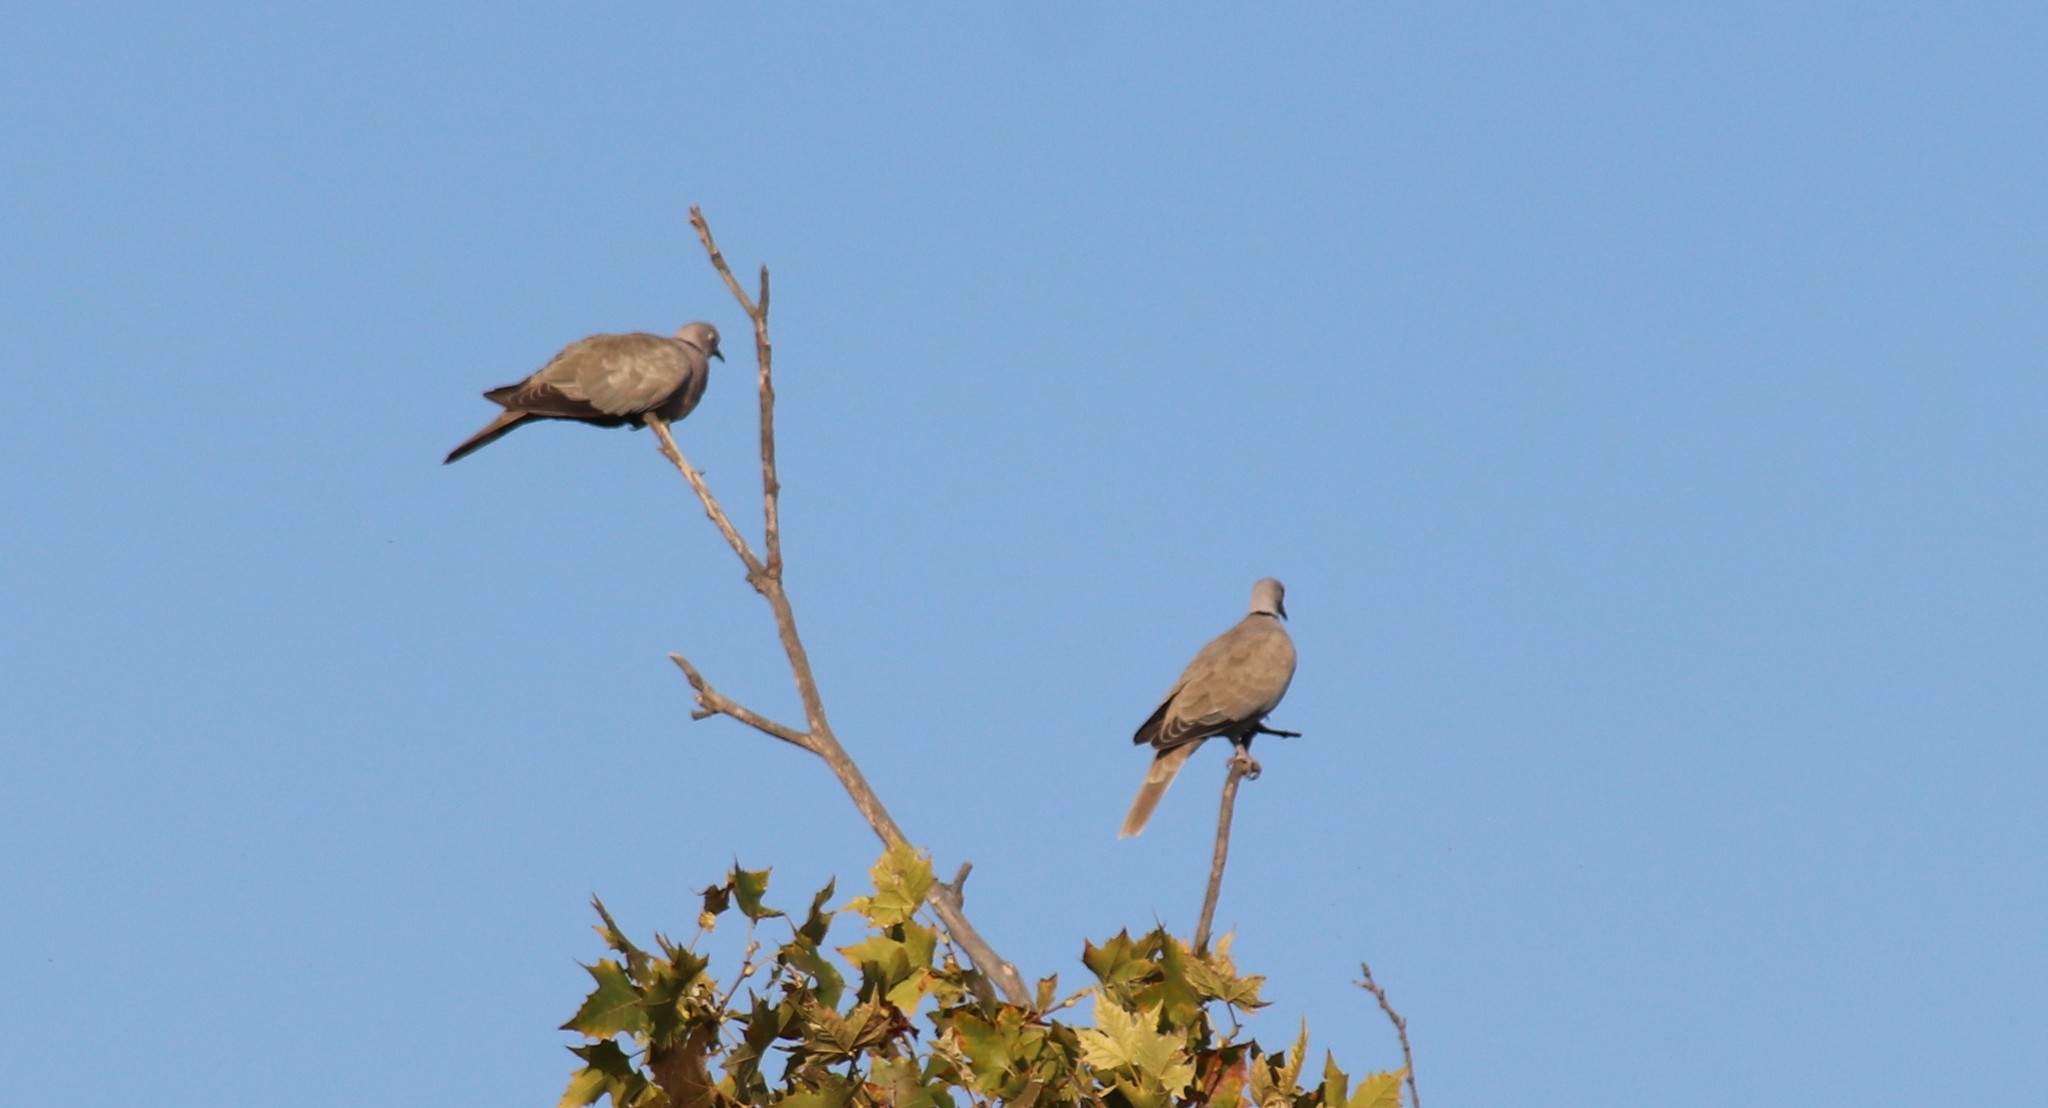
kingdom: Animalia
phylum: Chordata
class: Aves
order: Columbiformes
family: Columbidae
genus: Streptopelia
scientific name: Streptopelia decaocto
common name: Eurasian collared dove
